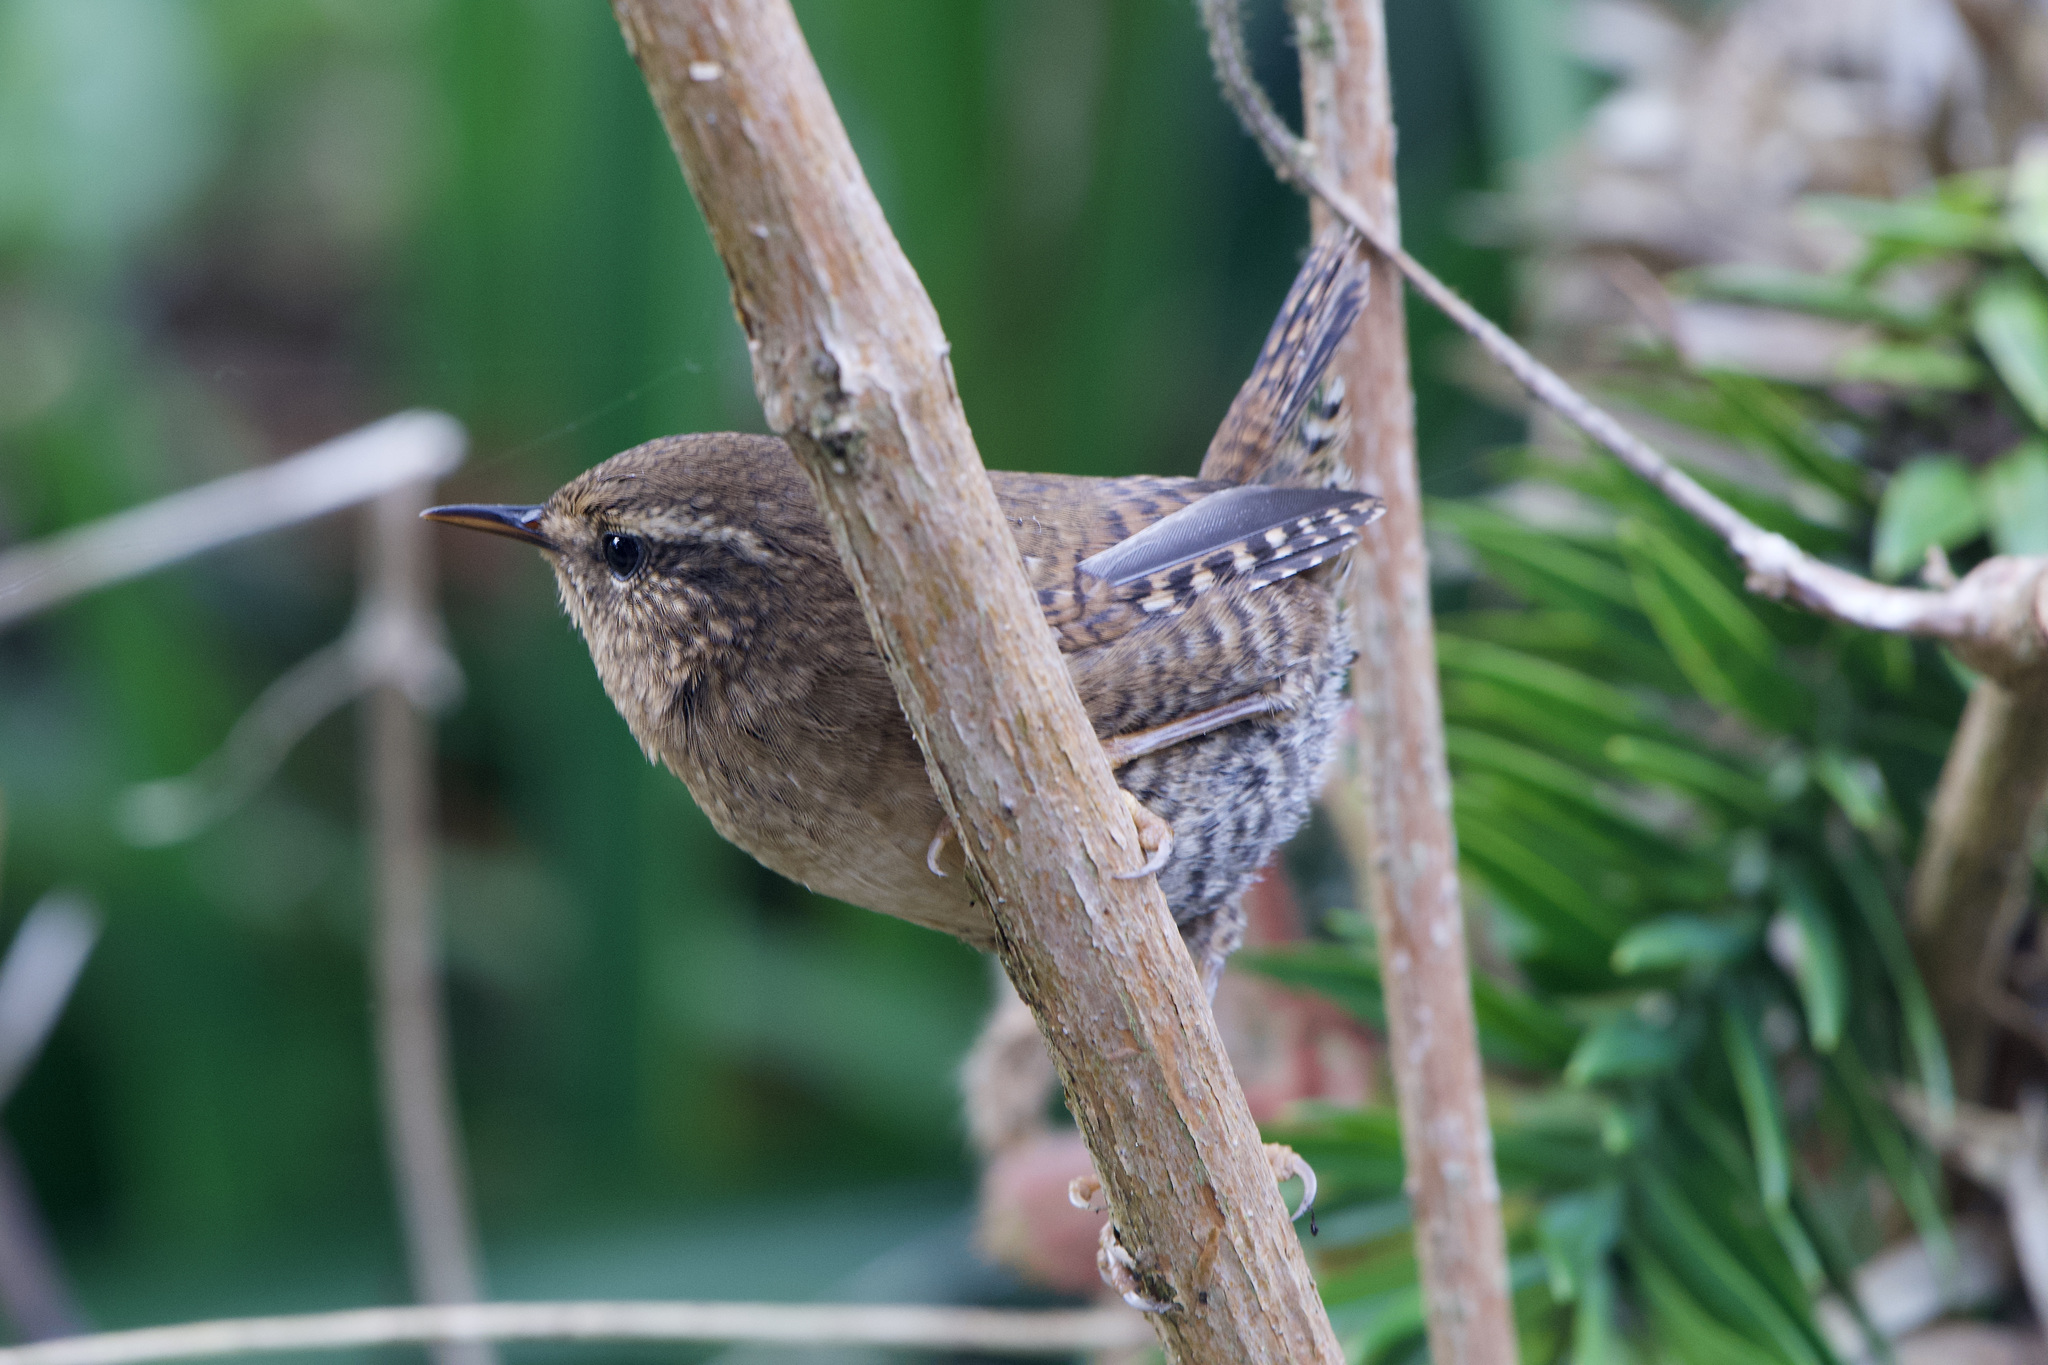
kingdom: Animalia
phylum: Chordata
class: Aves
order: Passeriformes
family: Troglodytidae
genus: Troglodytes
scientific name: Troglodytes pacificus
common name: Pacific wren
